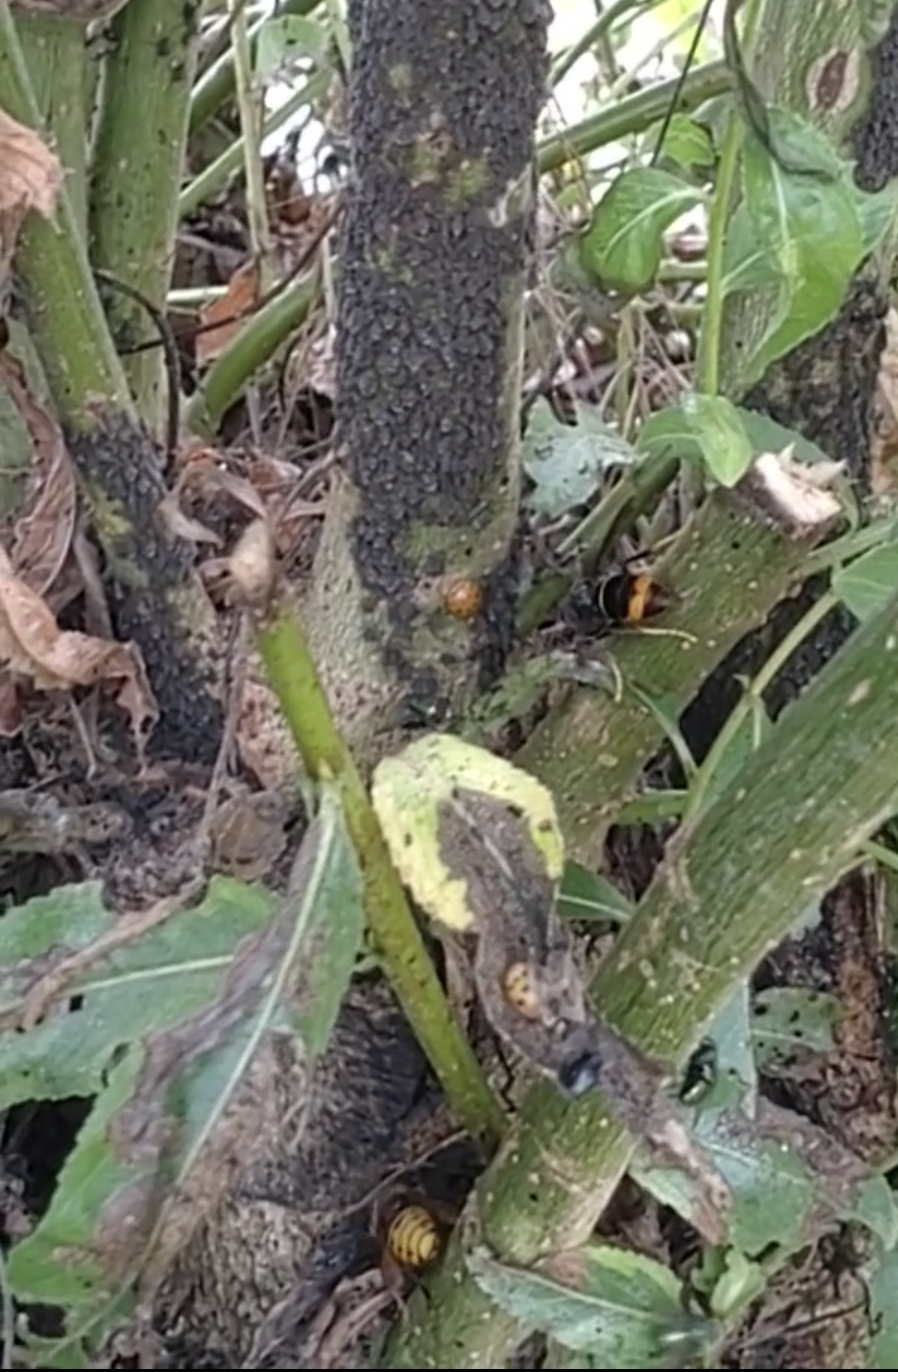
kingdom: Animalia
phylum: Arthropoda
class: Insecta
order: Hymenoptera
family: Vespidae
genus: Vespa
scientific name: Vespa velutina
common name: Asian hornet
